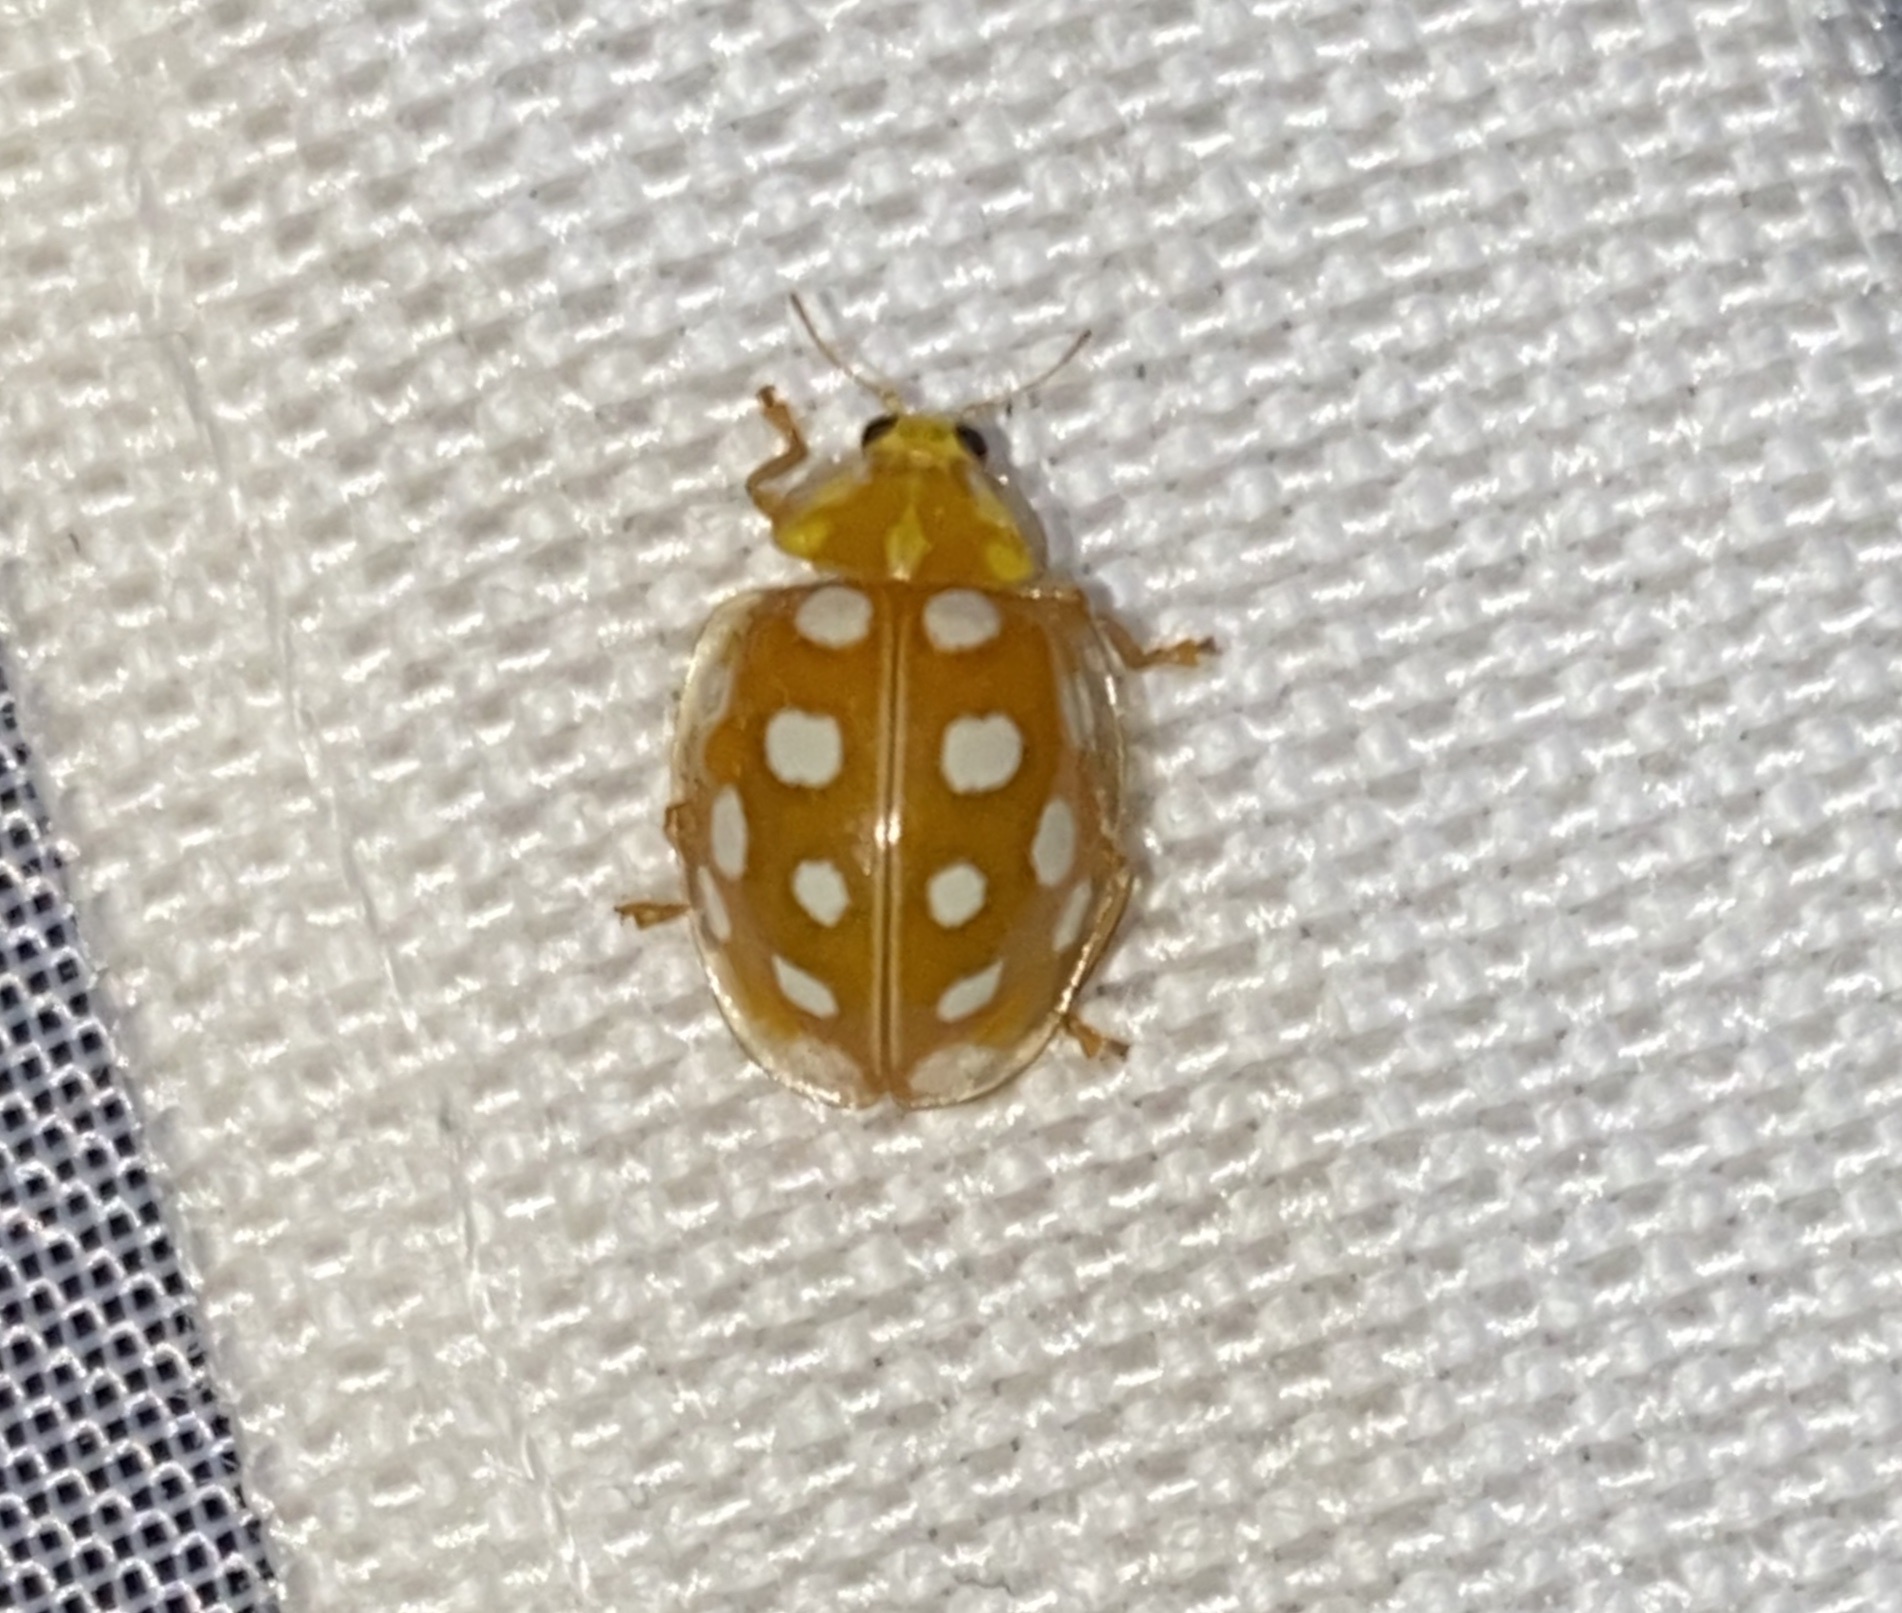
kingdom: Animalia
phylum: Arthropoda
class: Insecta
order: Coleoptera
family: Coccinellidae
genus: Halyzia
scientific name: Halyzia sedecimguttata
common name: Orange ladybird
